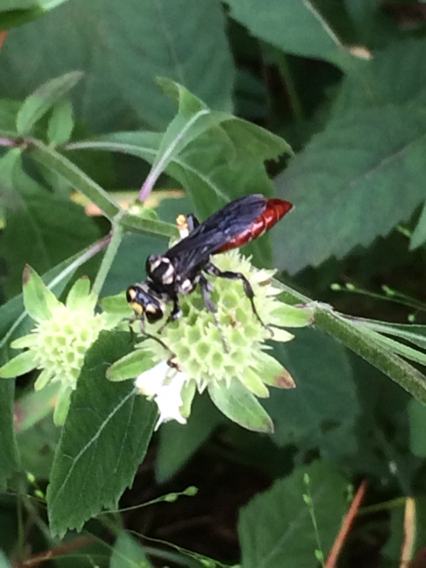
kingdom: Animalia
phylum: Arthropoda
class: Insecta
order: Hymenoptera
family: Crabronidae
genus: Larra
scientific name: Larra bicolor
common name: Wasp
